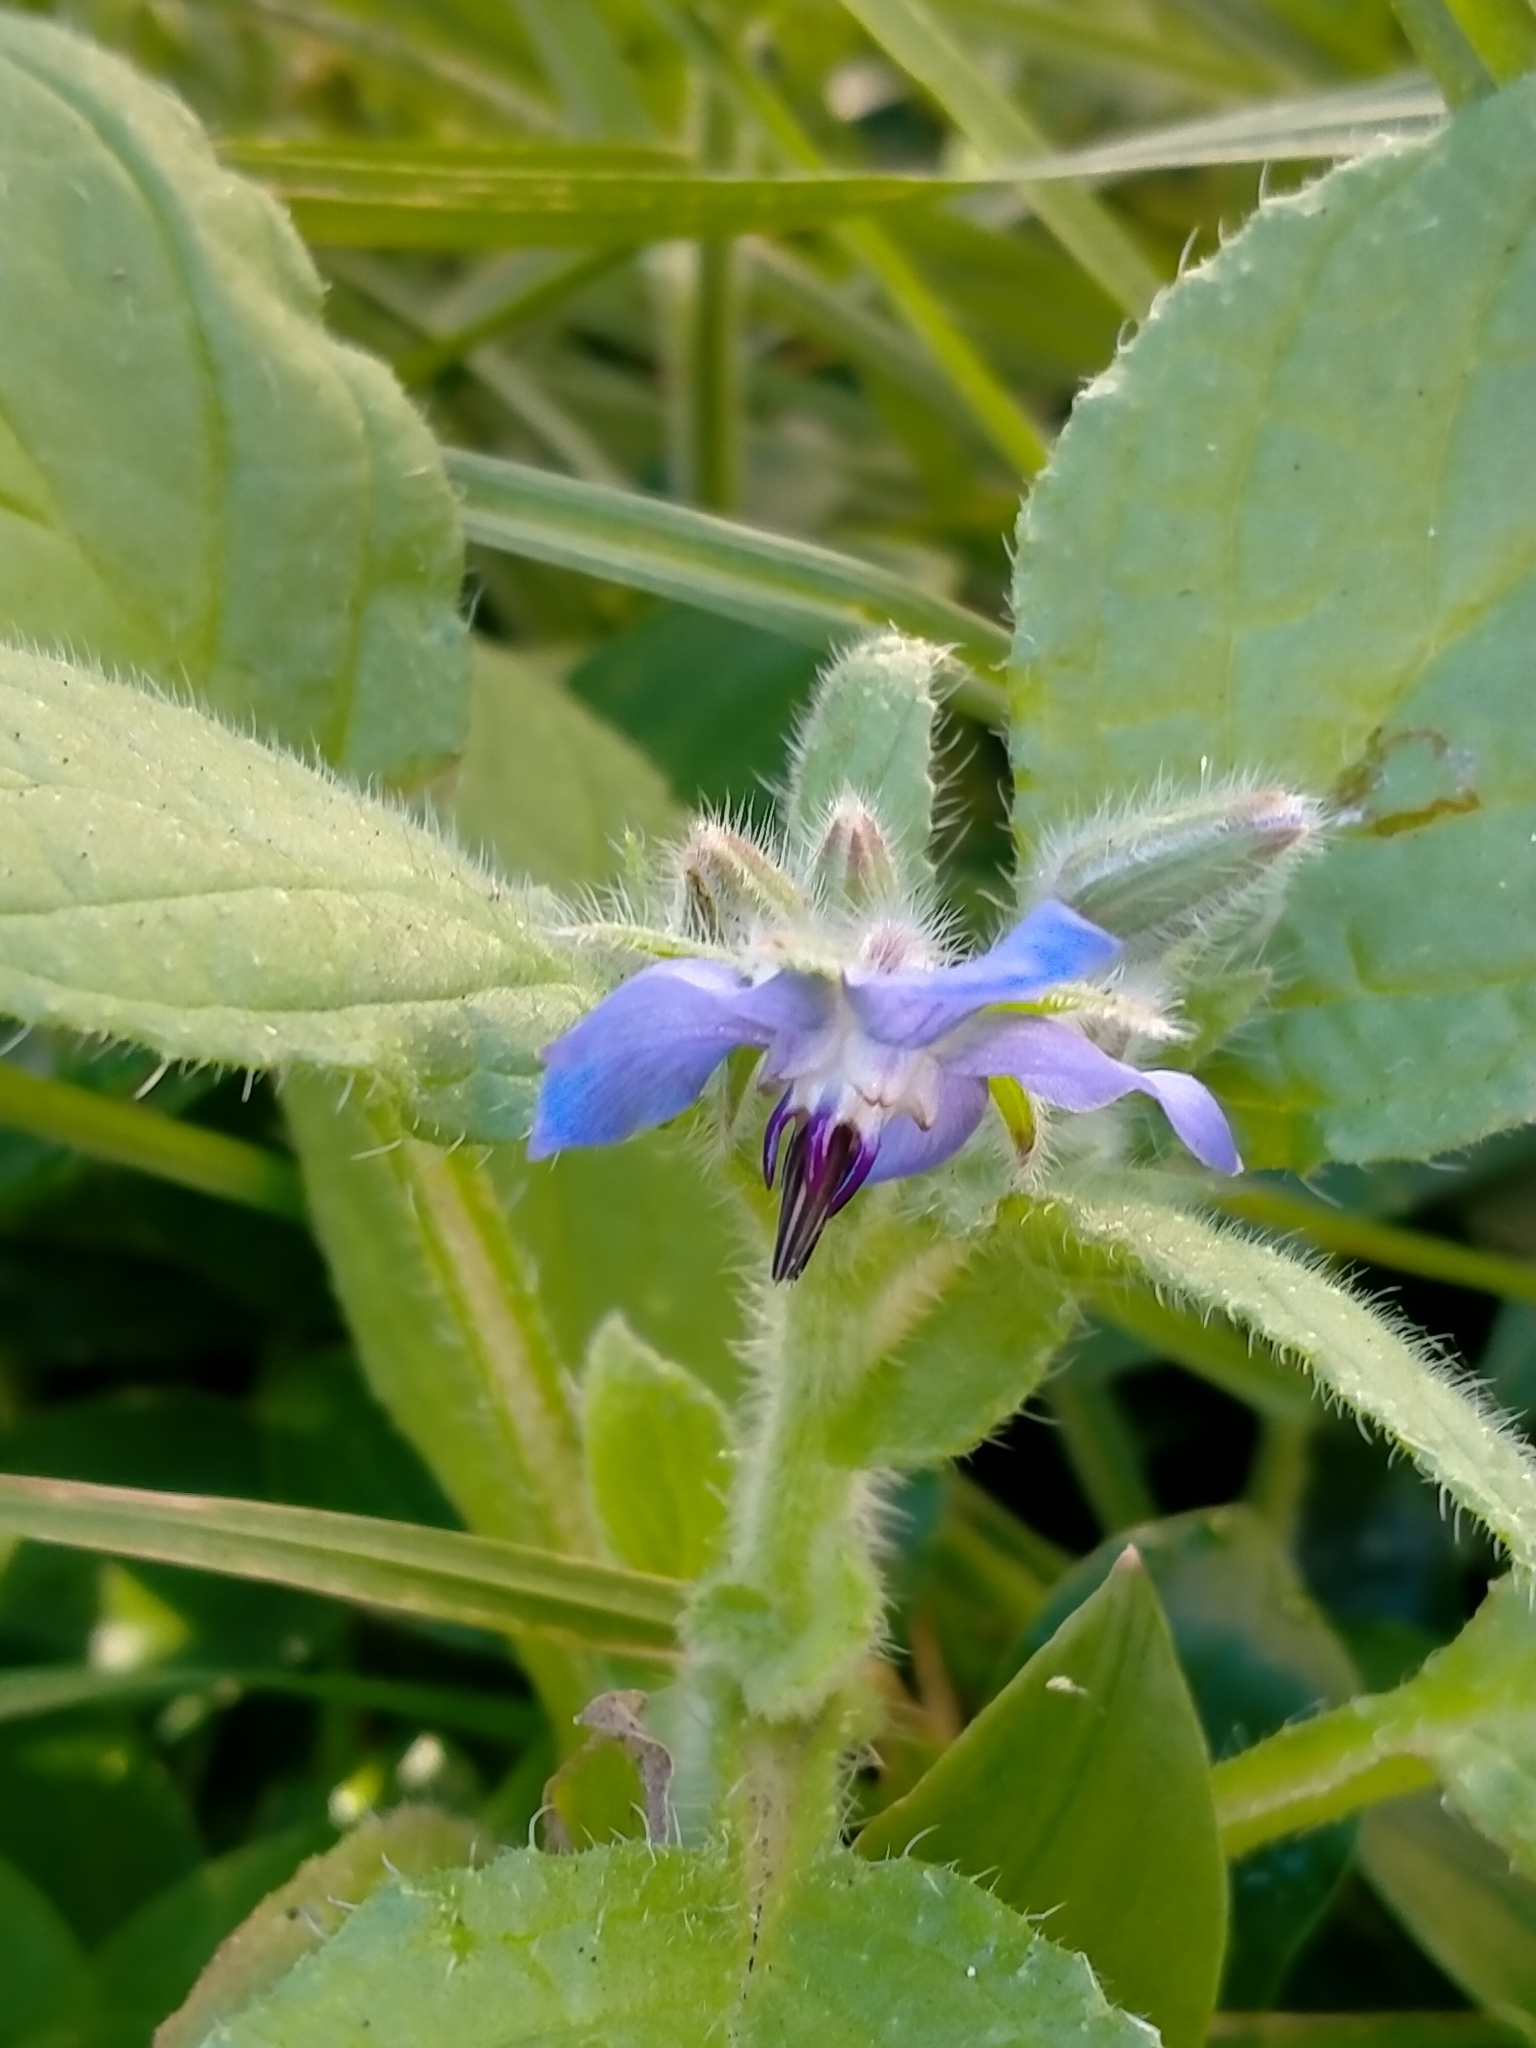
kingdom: Plantae
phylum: Tracheophyta
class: Magnoliopsida
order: Boraginales
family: Boraginaceae
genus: Borago
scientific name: Borago officinalis
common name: Borage
